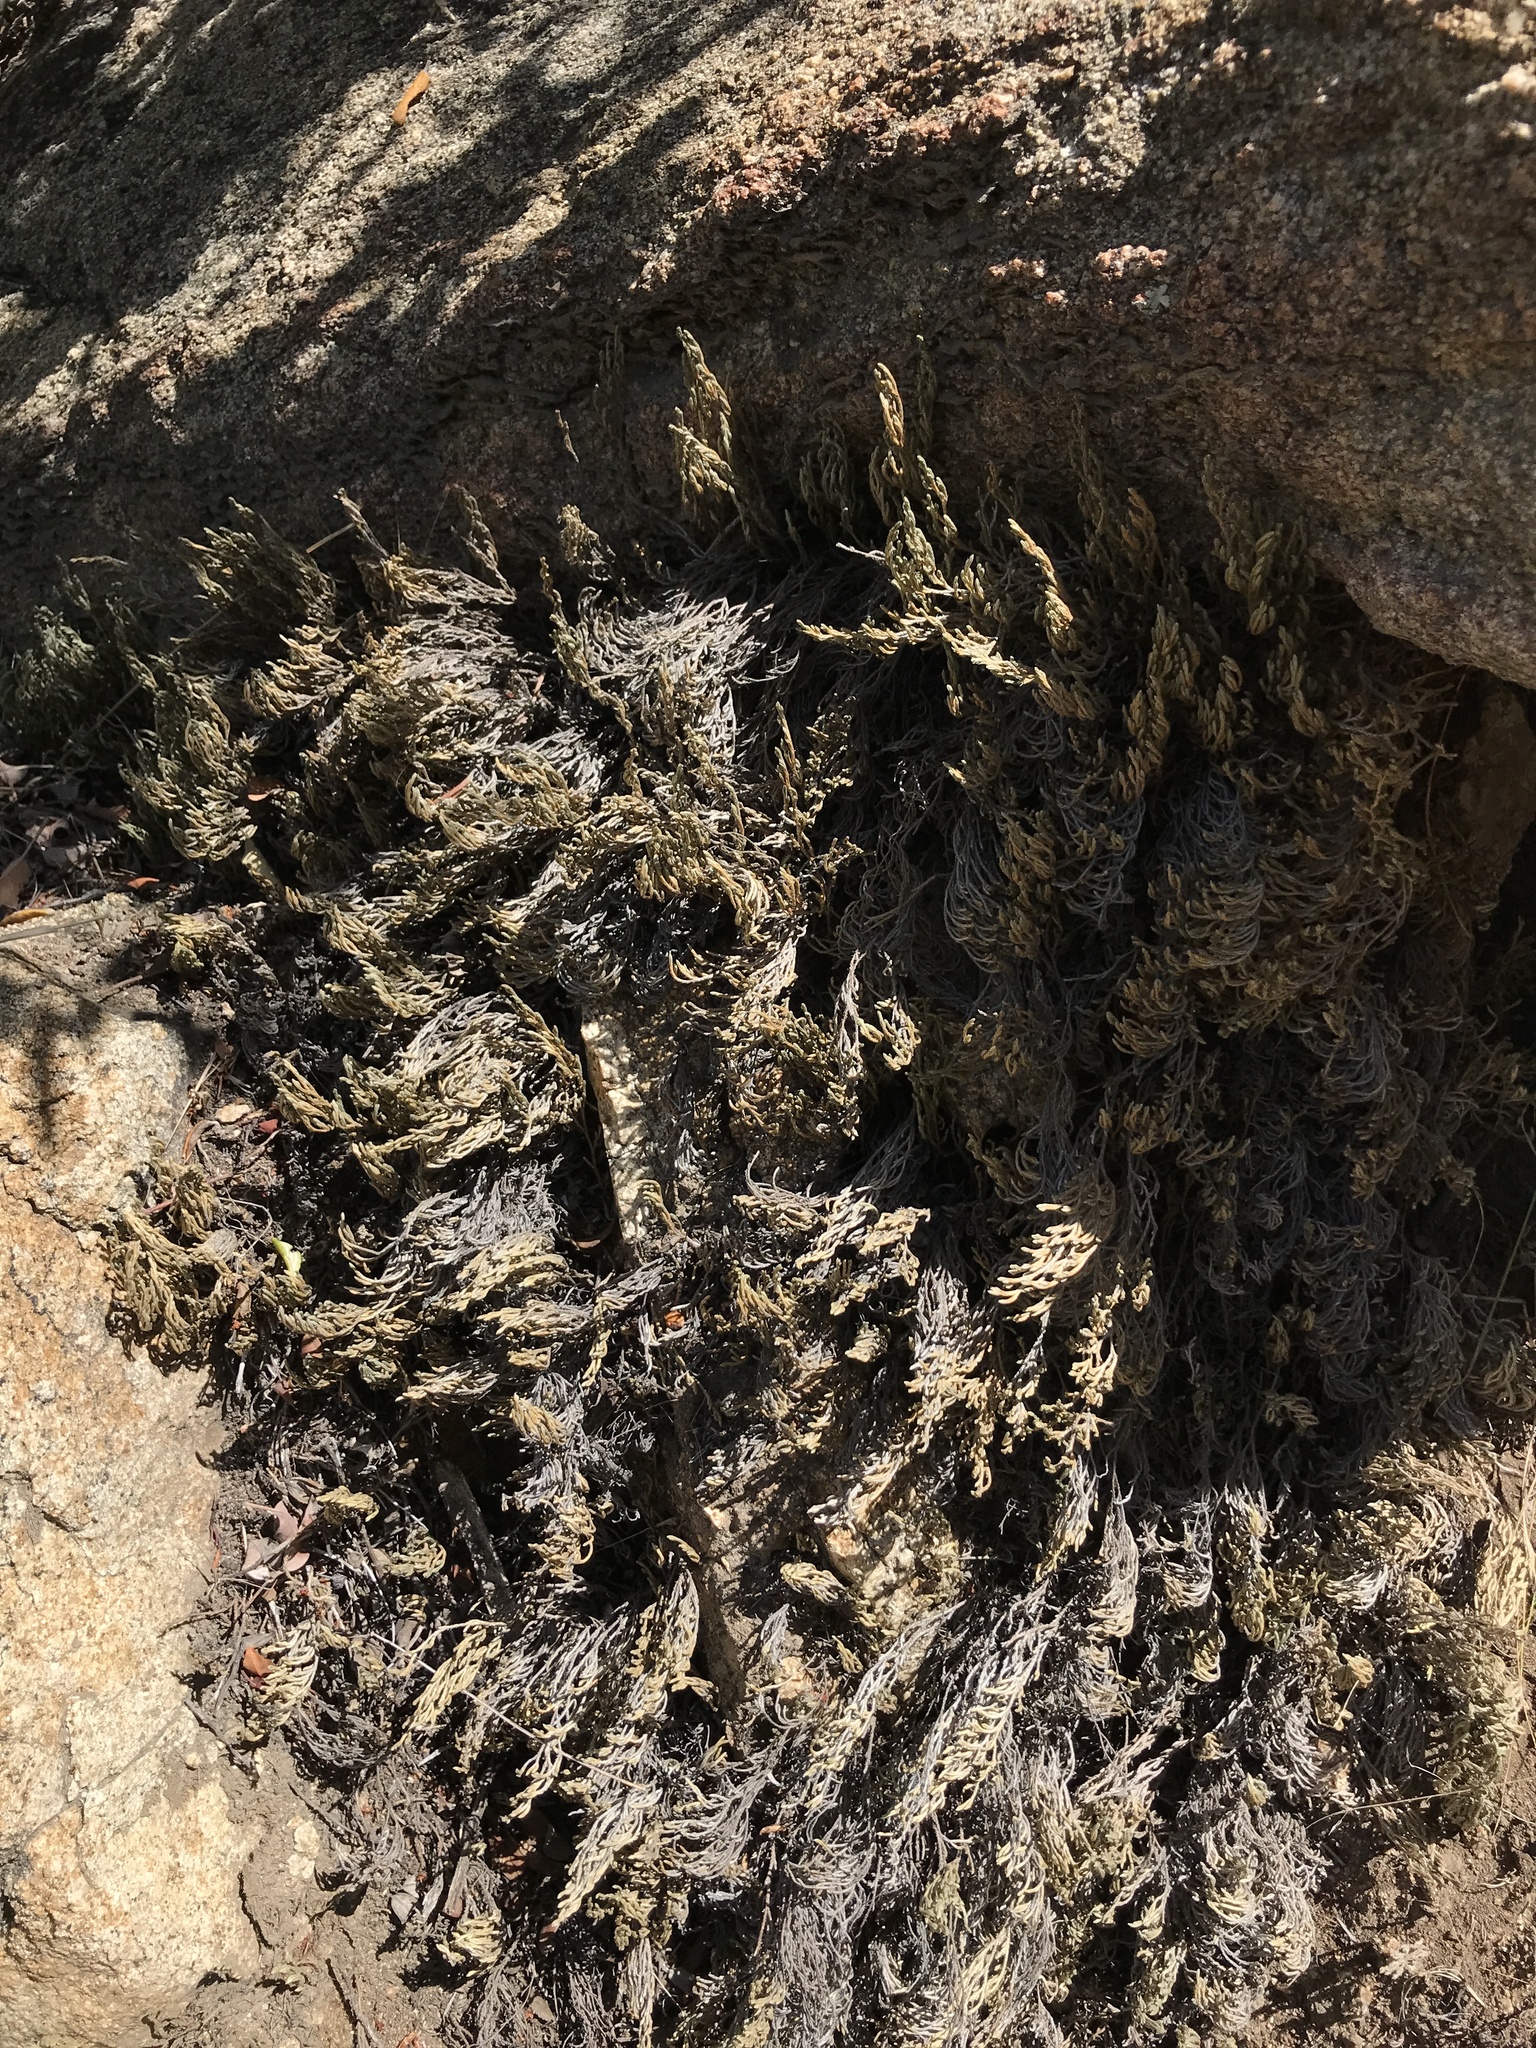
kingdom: Plantae
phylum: Tracheophyta
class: Lycopodiopsida
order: Selaginellales
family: Selaginellaceae
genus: Selaginella
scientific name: Selaginella bigelovii
